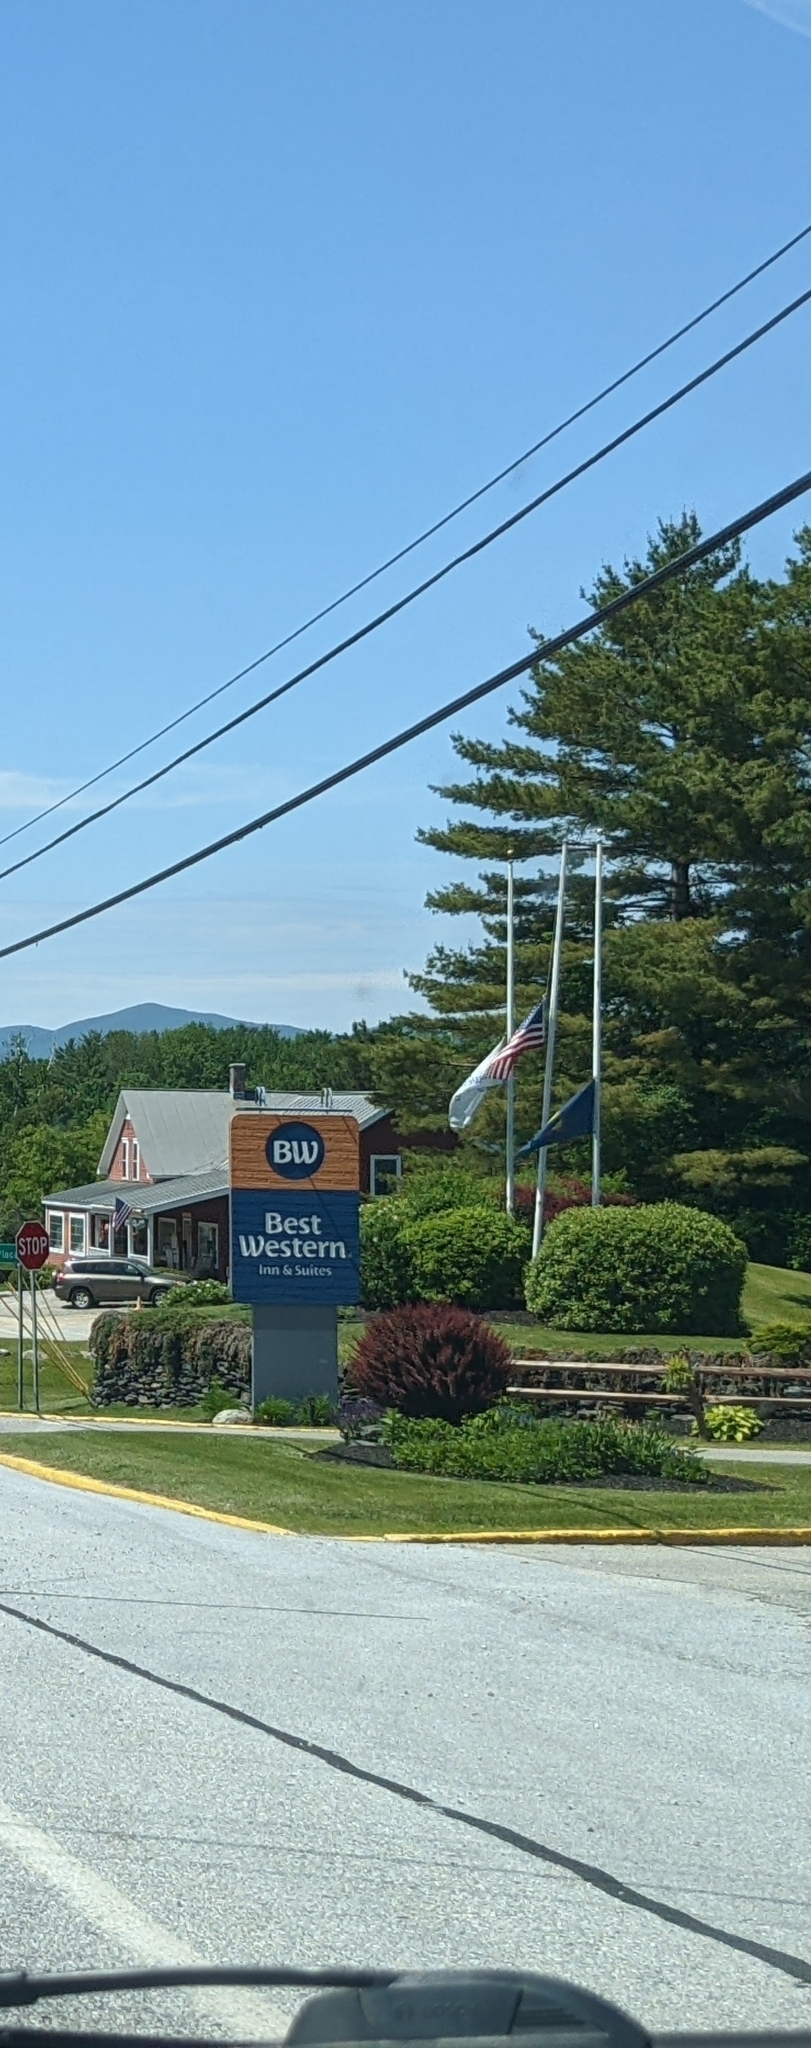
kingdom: Plantae
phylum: Tracheophyta
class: Pinopsida
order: Pinales
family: Pinaceae
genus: Pinus
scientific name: Pinus strobus
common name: Weymouth pine
